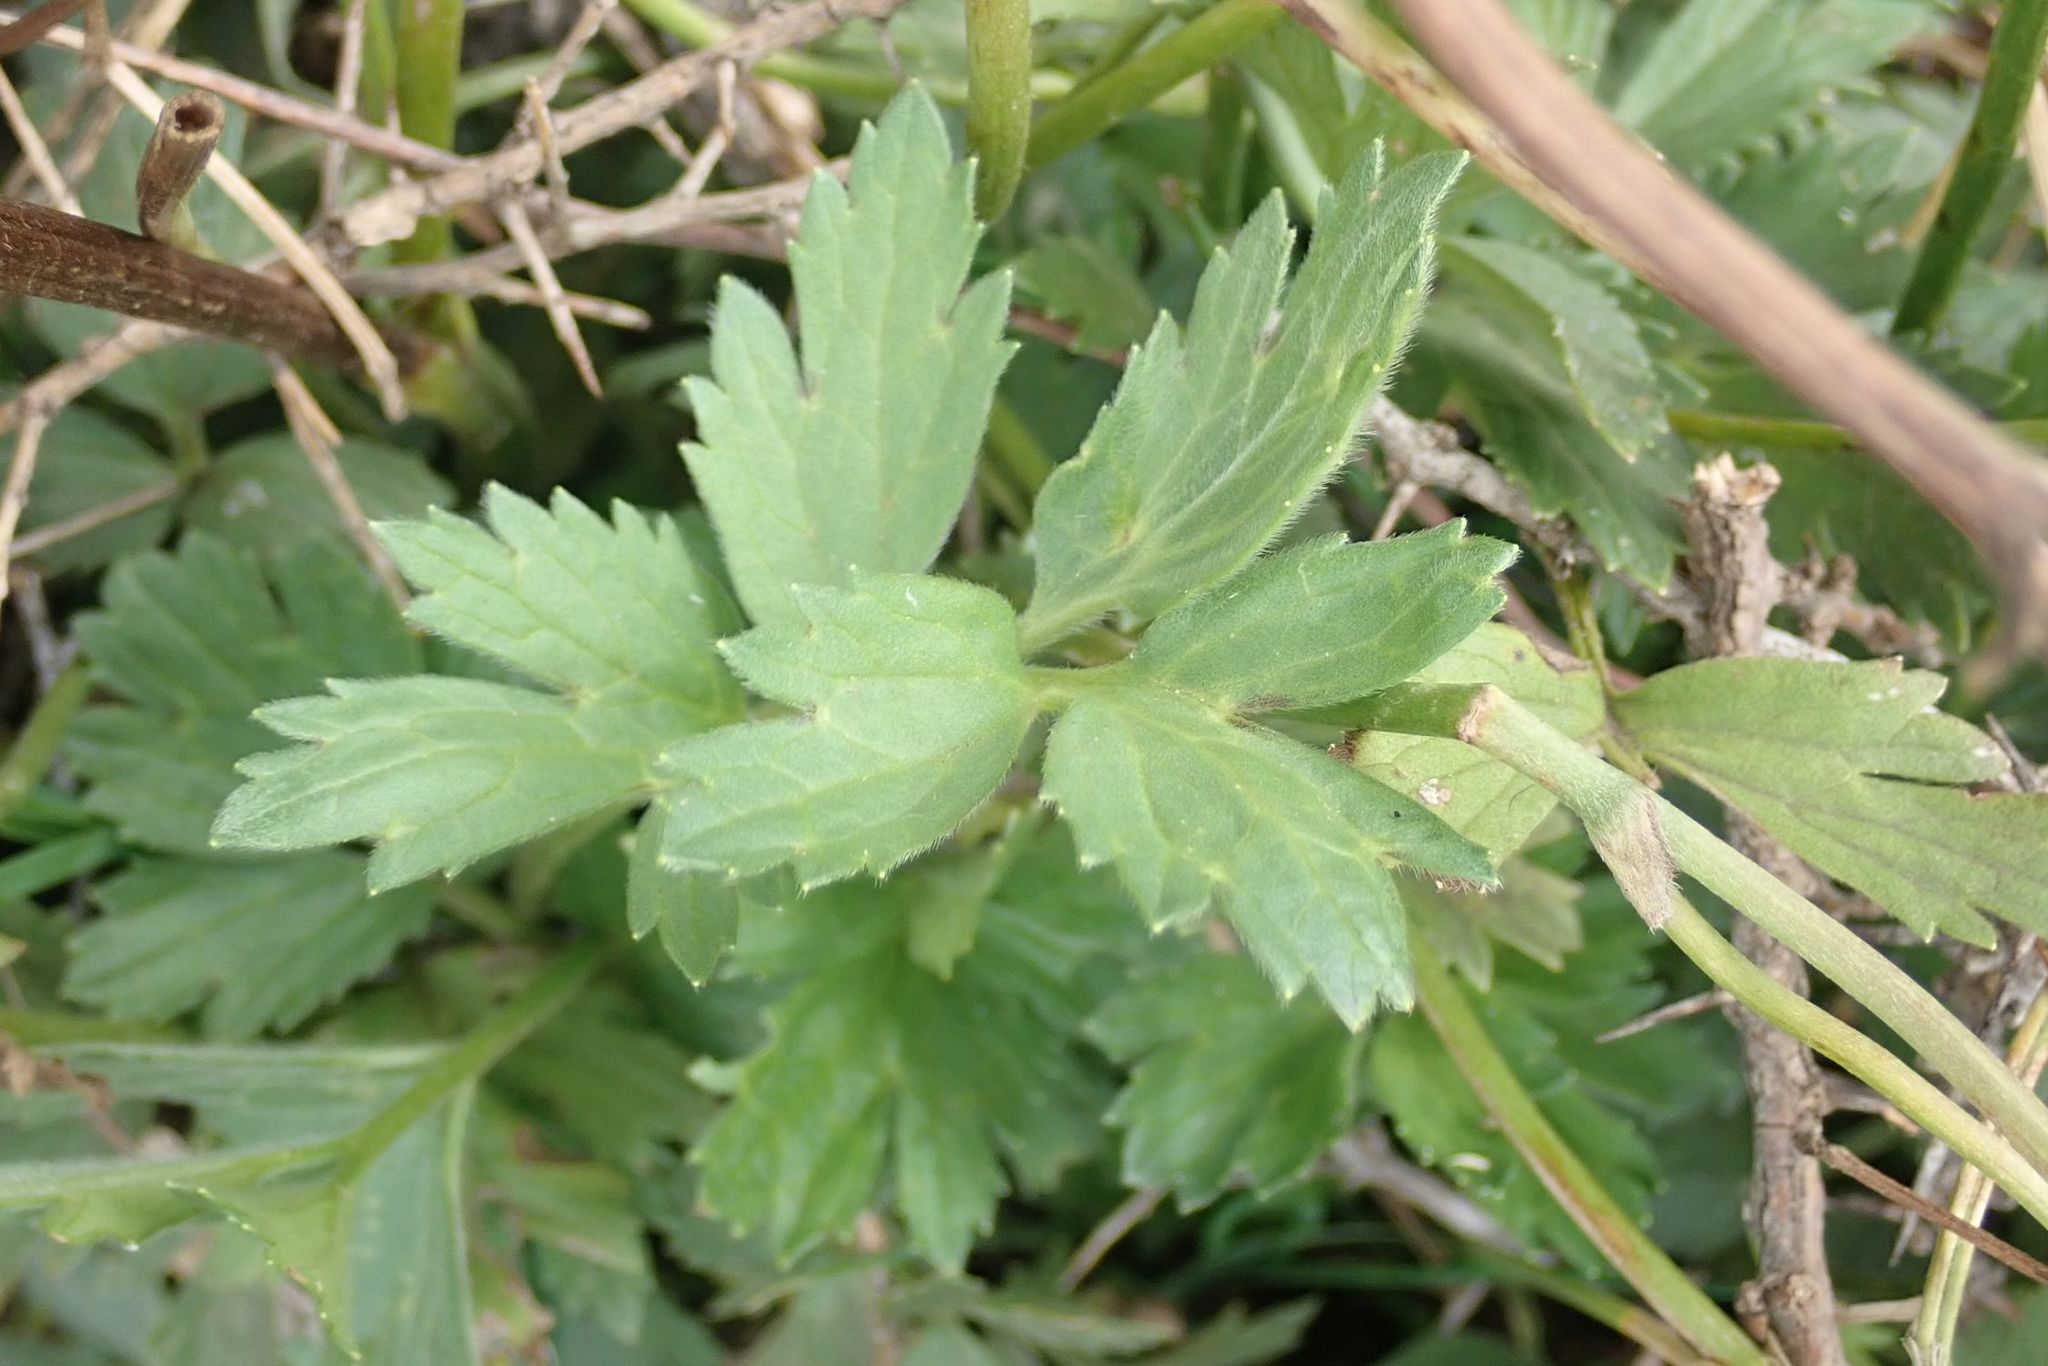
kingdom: Plantae
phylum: Tracheophyta
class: Magnoliopsida
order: Ranunculales
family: Ranunculaceae
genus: Ranunculus
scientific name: Ranunculus multifidus
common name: Wild buttercup
